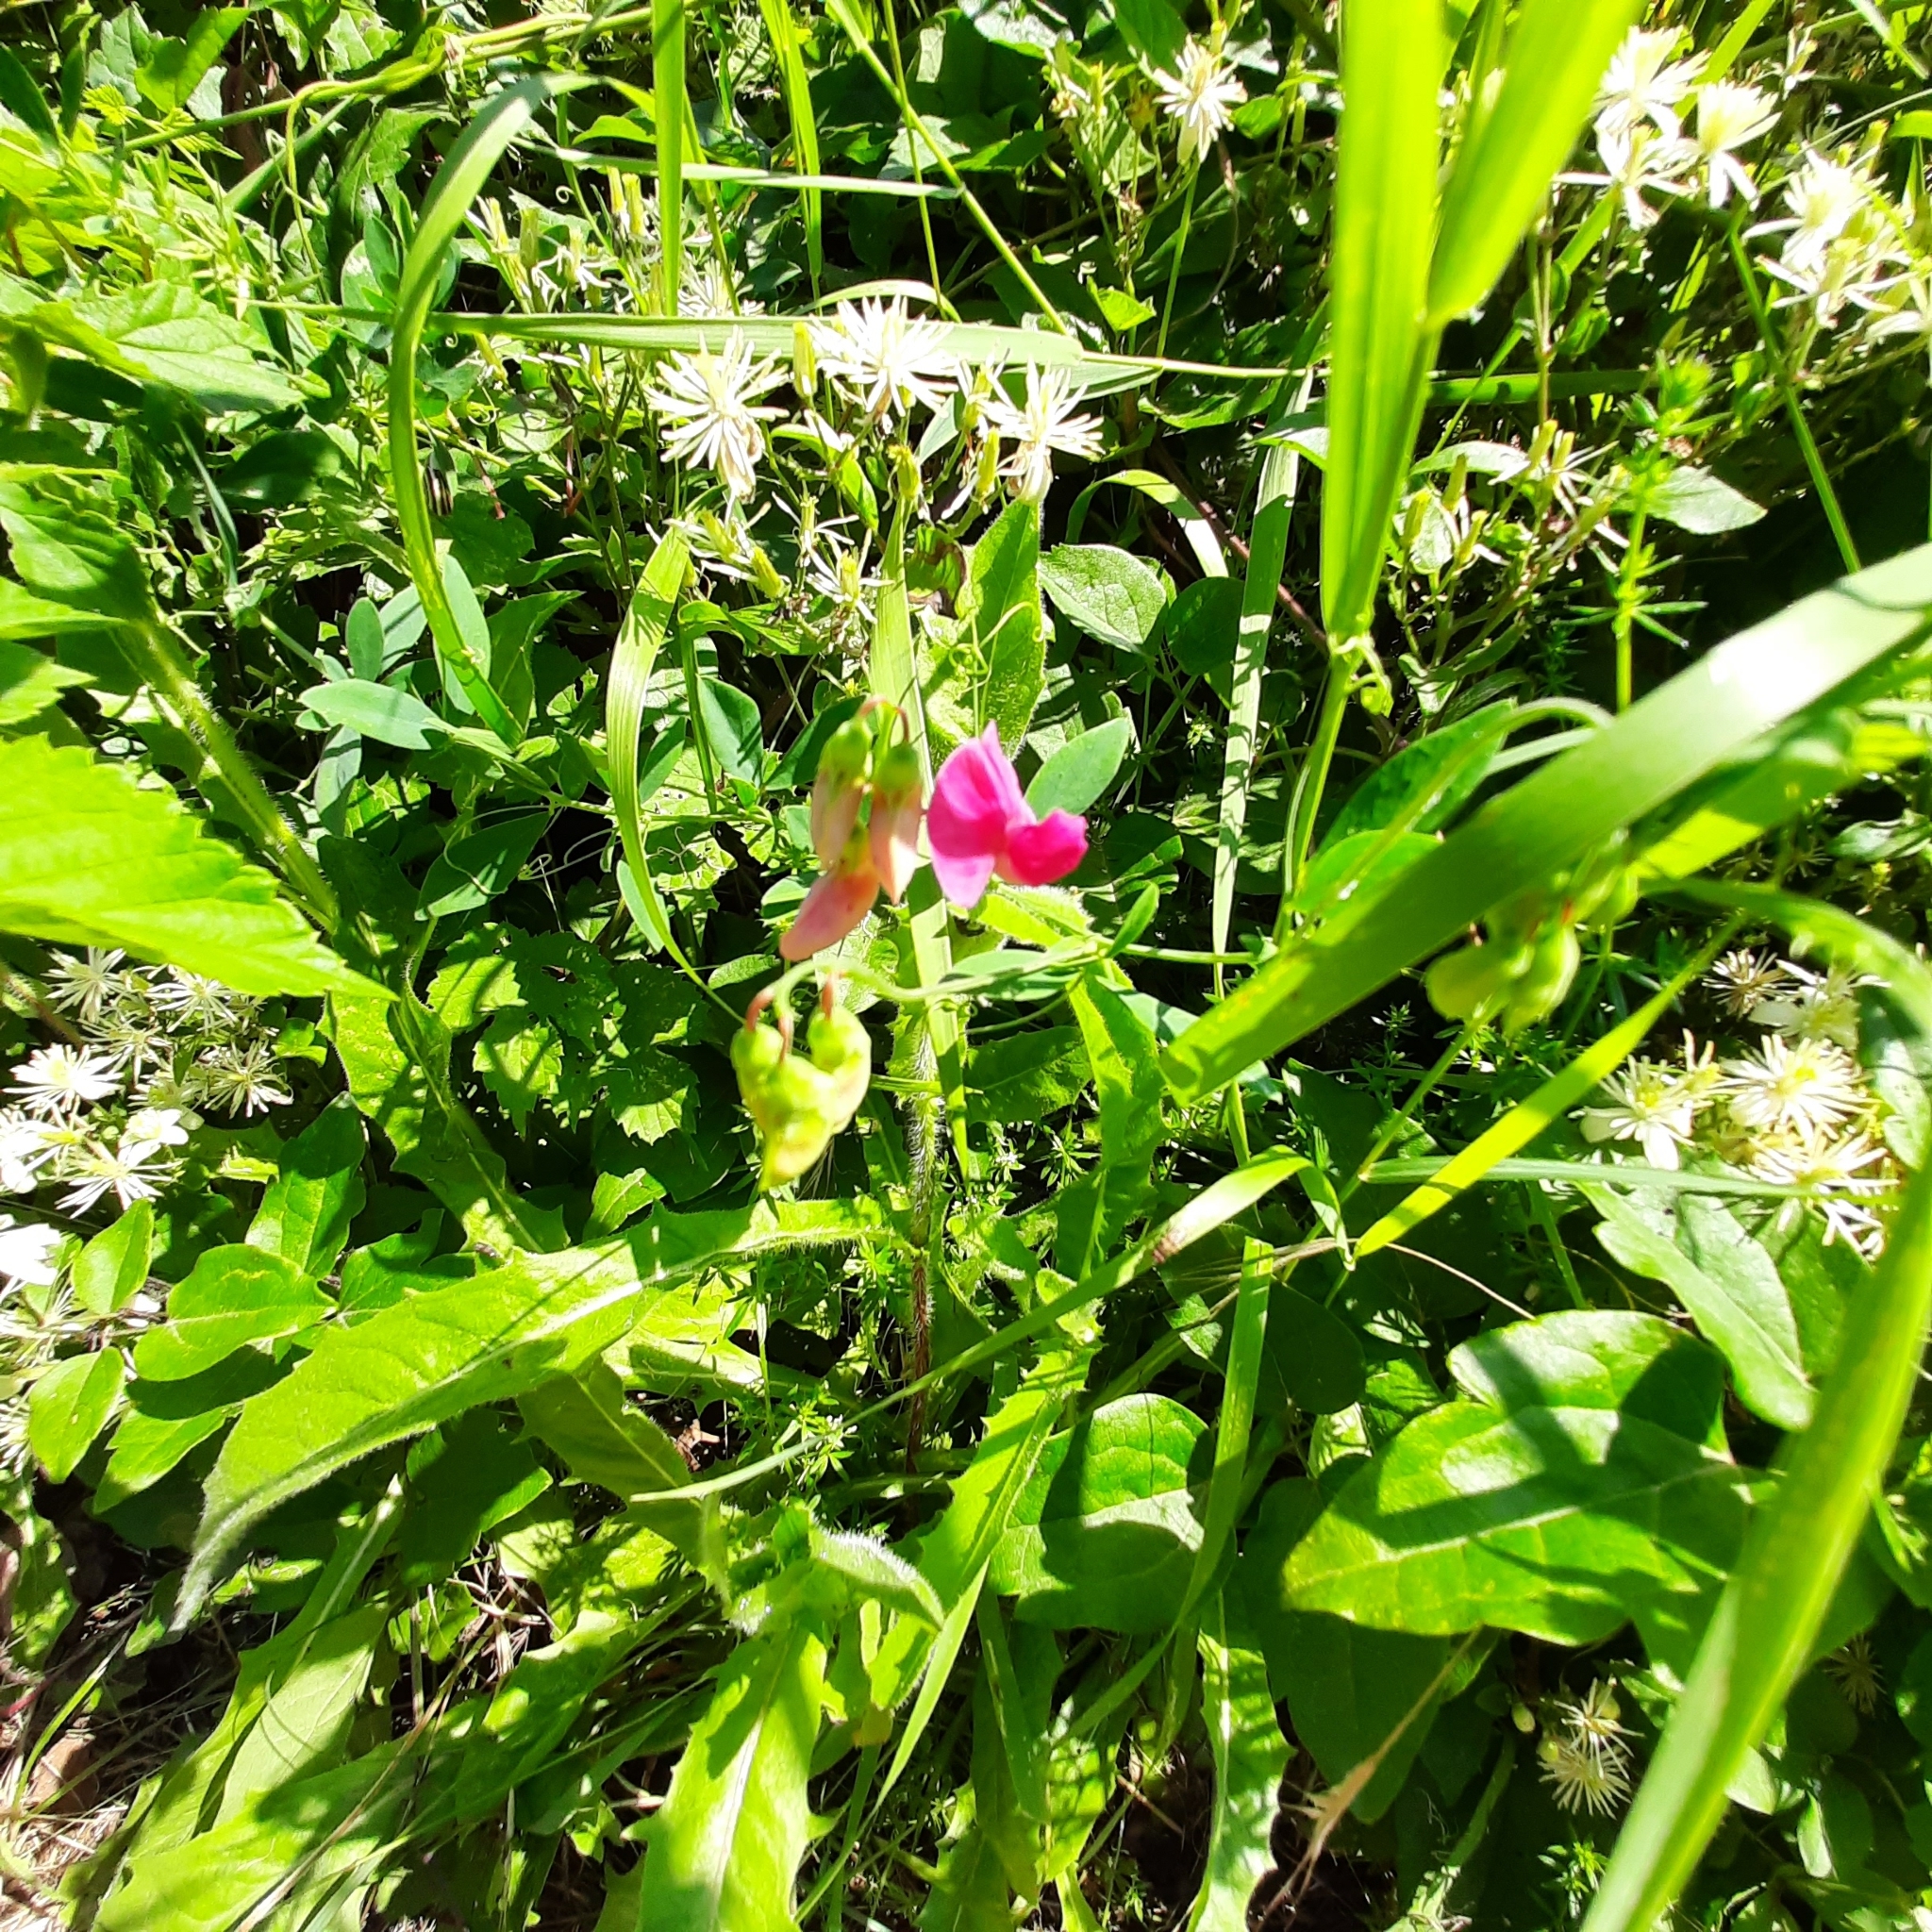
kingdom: Plantae
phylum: Tracheophyta
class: Magnoliopsida
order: Fabales
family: Fabaceae
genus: Lathyrus
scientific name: Lathyrus tuberosus
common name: Tuberous pea
